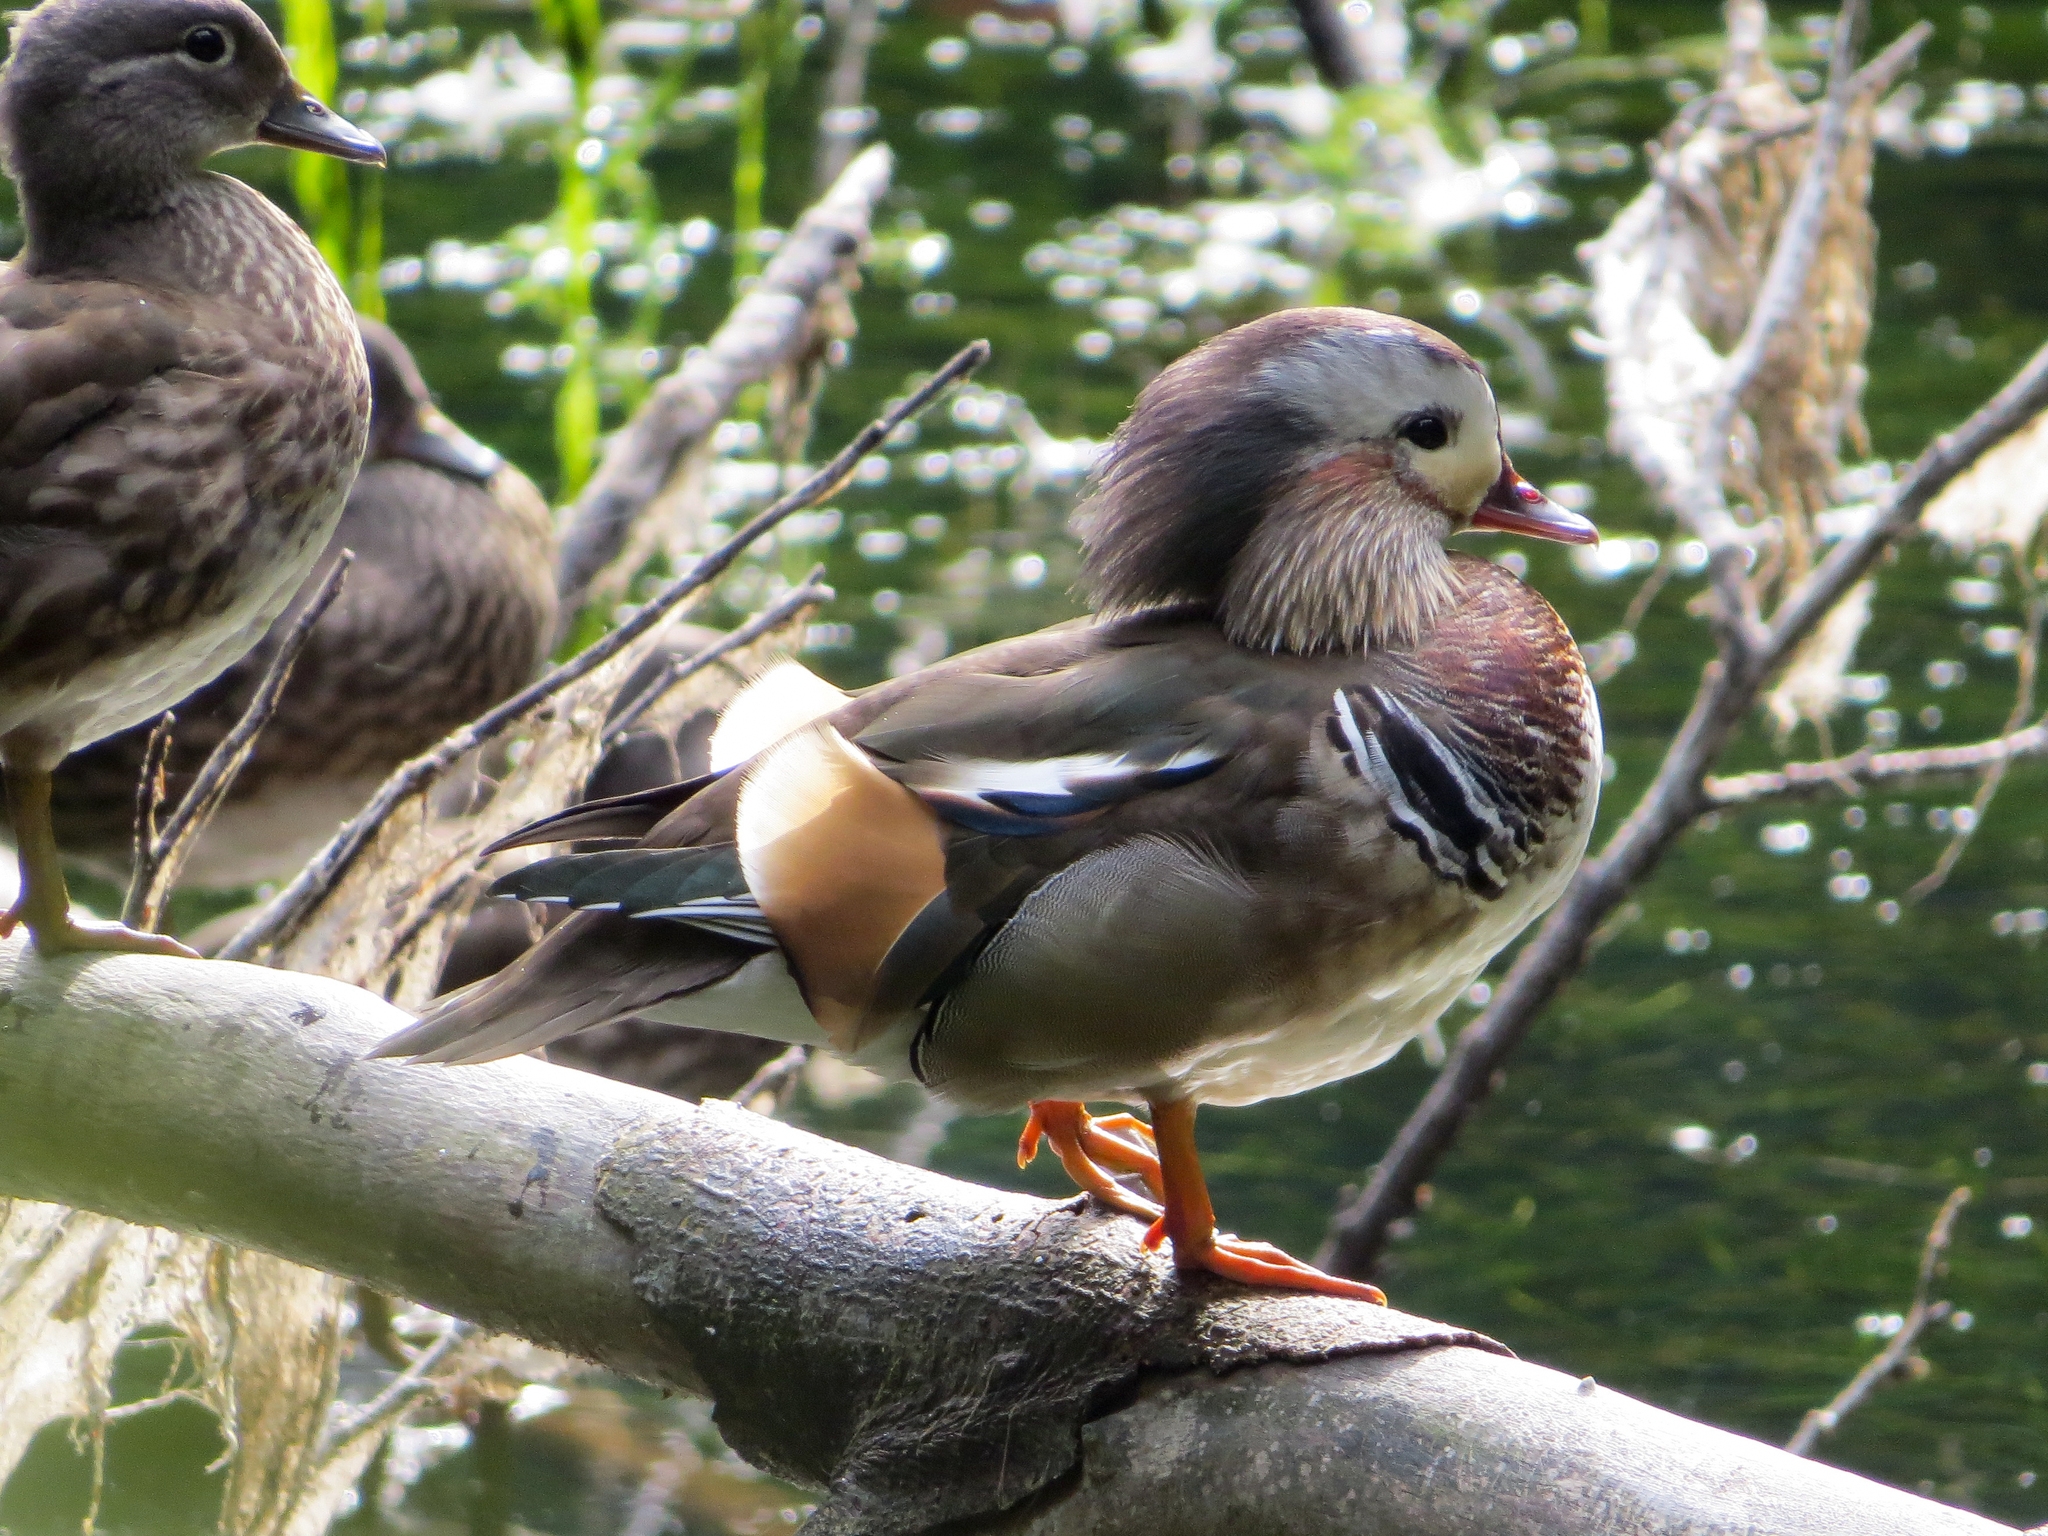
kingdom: Animalia
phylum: Chordata
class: Aves
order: Anseriformes
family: Anatidae
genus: Aix
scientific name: Aix galericulata
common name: Mandarin duck
